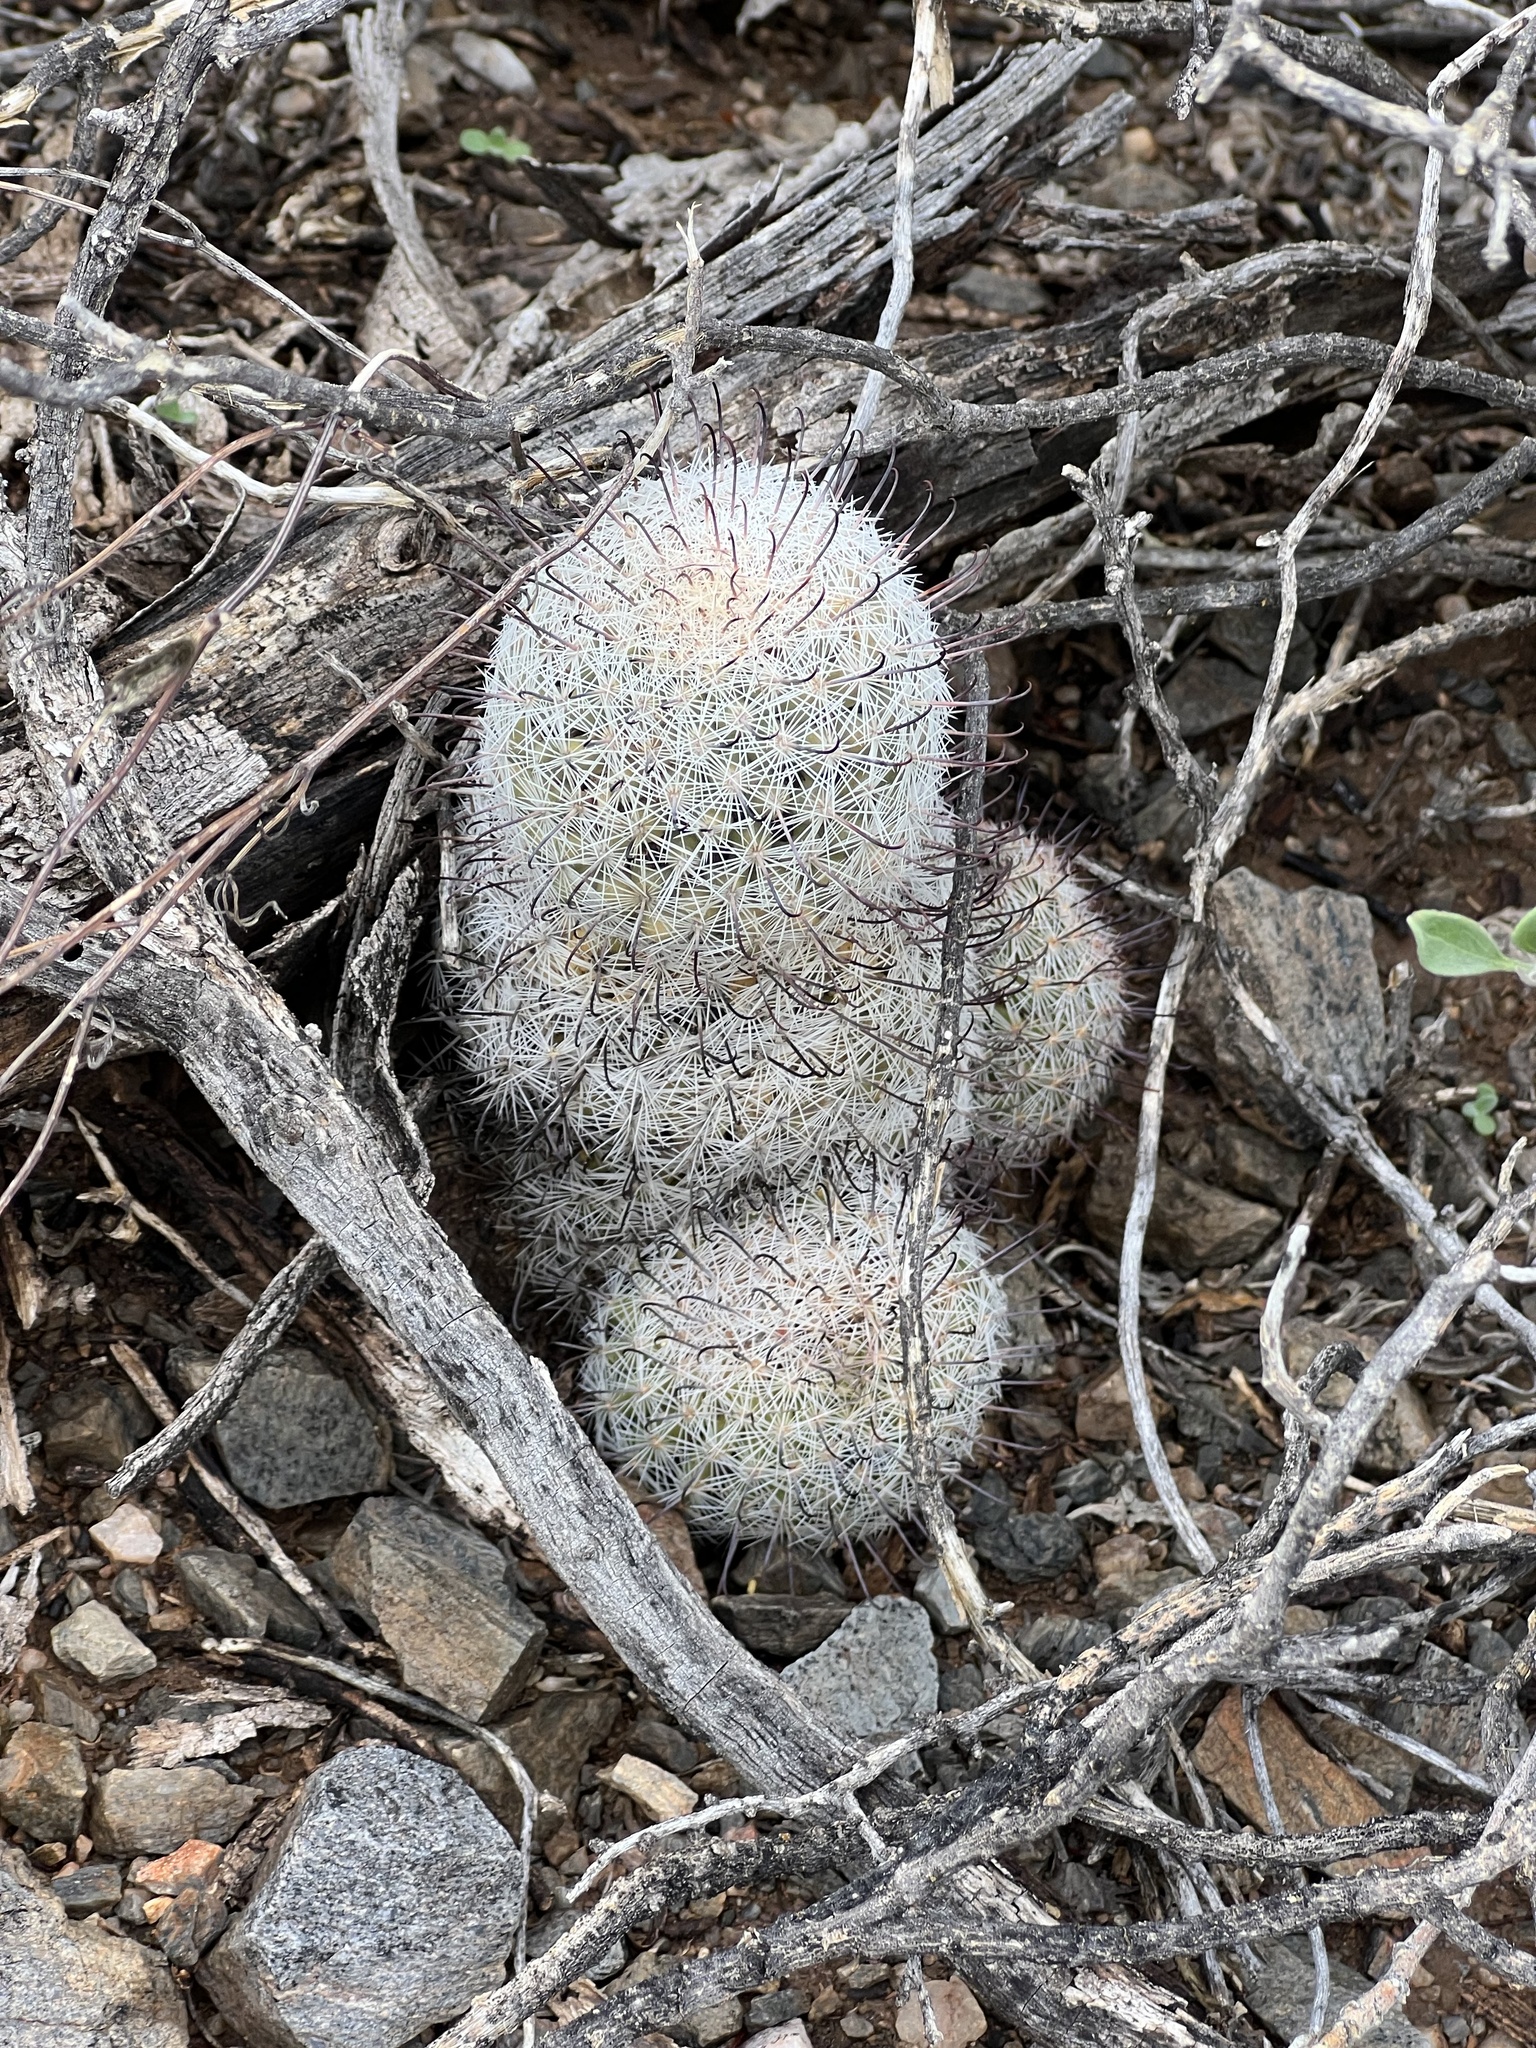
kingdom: Plantae
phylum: Tracheophyta
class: Magnoliopsida
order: Caryophyllales
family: Cactaceae
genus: Cochemiea
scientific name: Cochemiea grahamii
